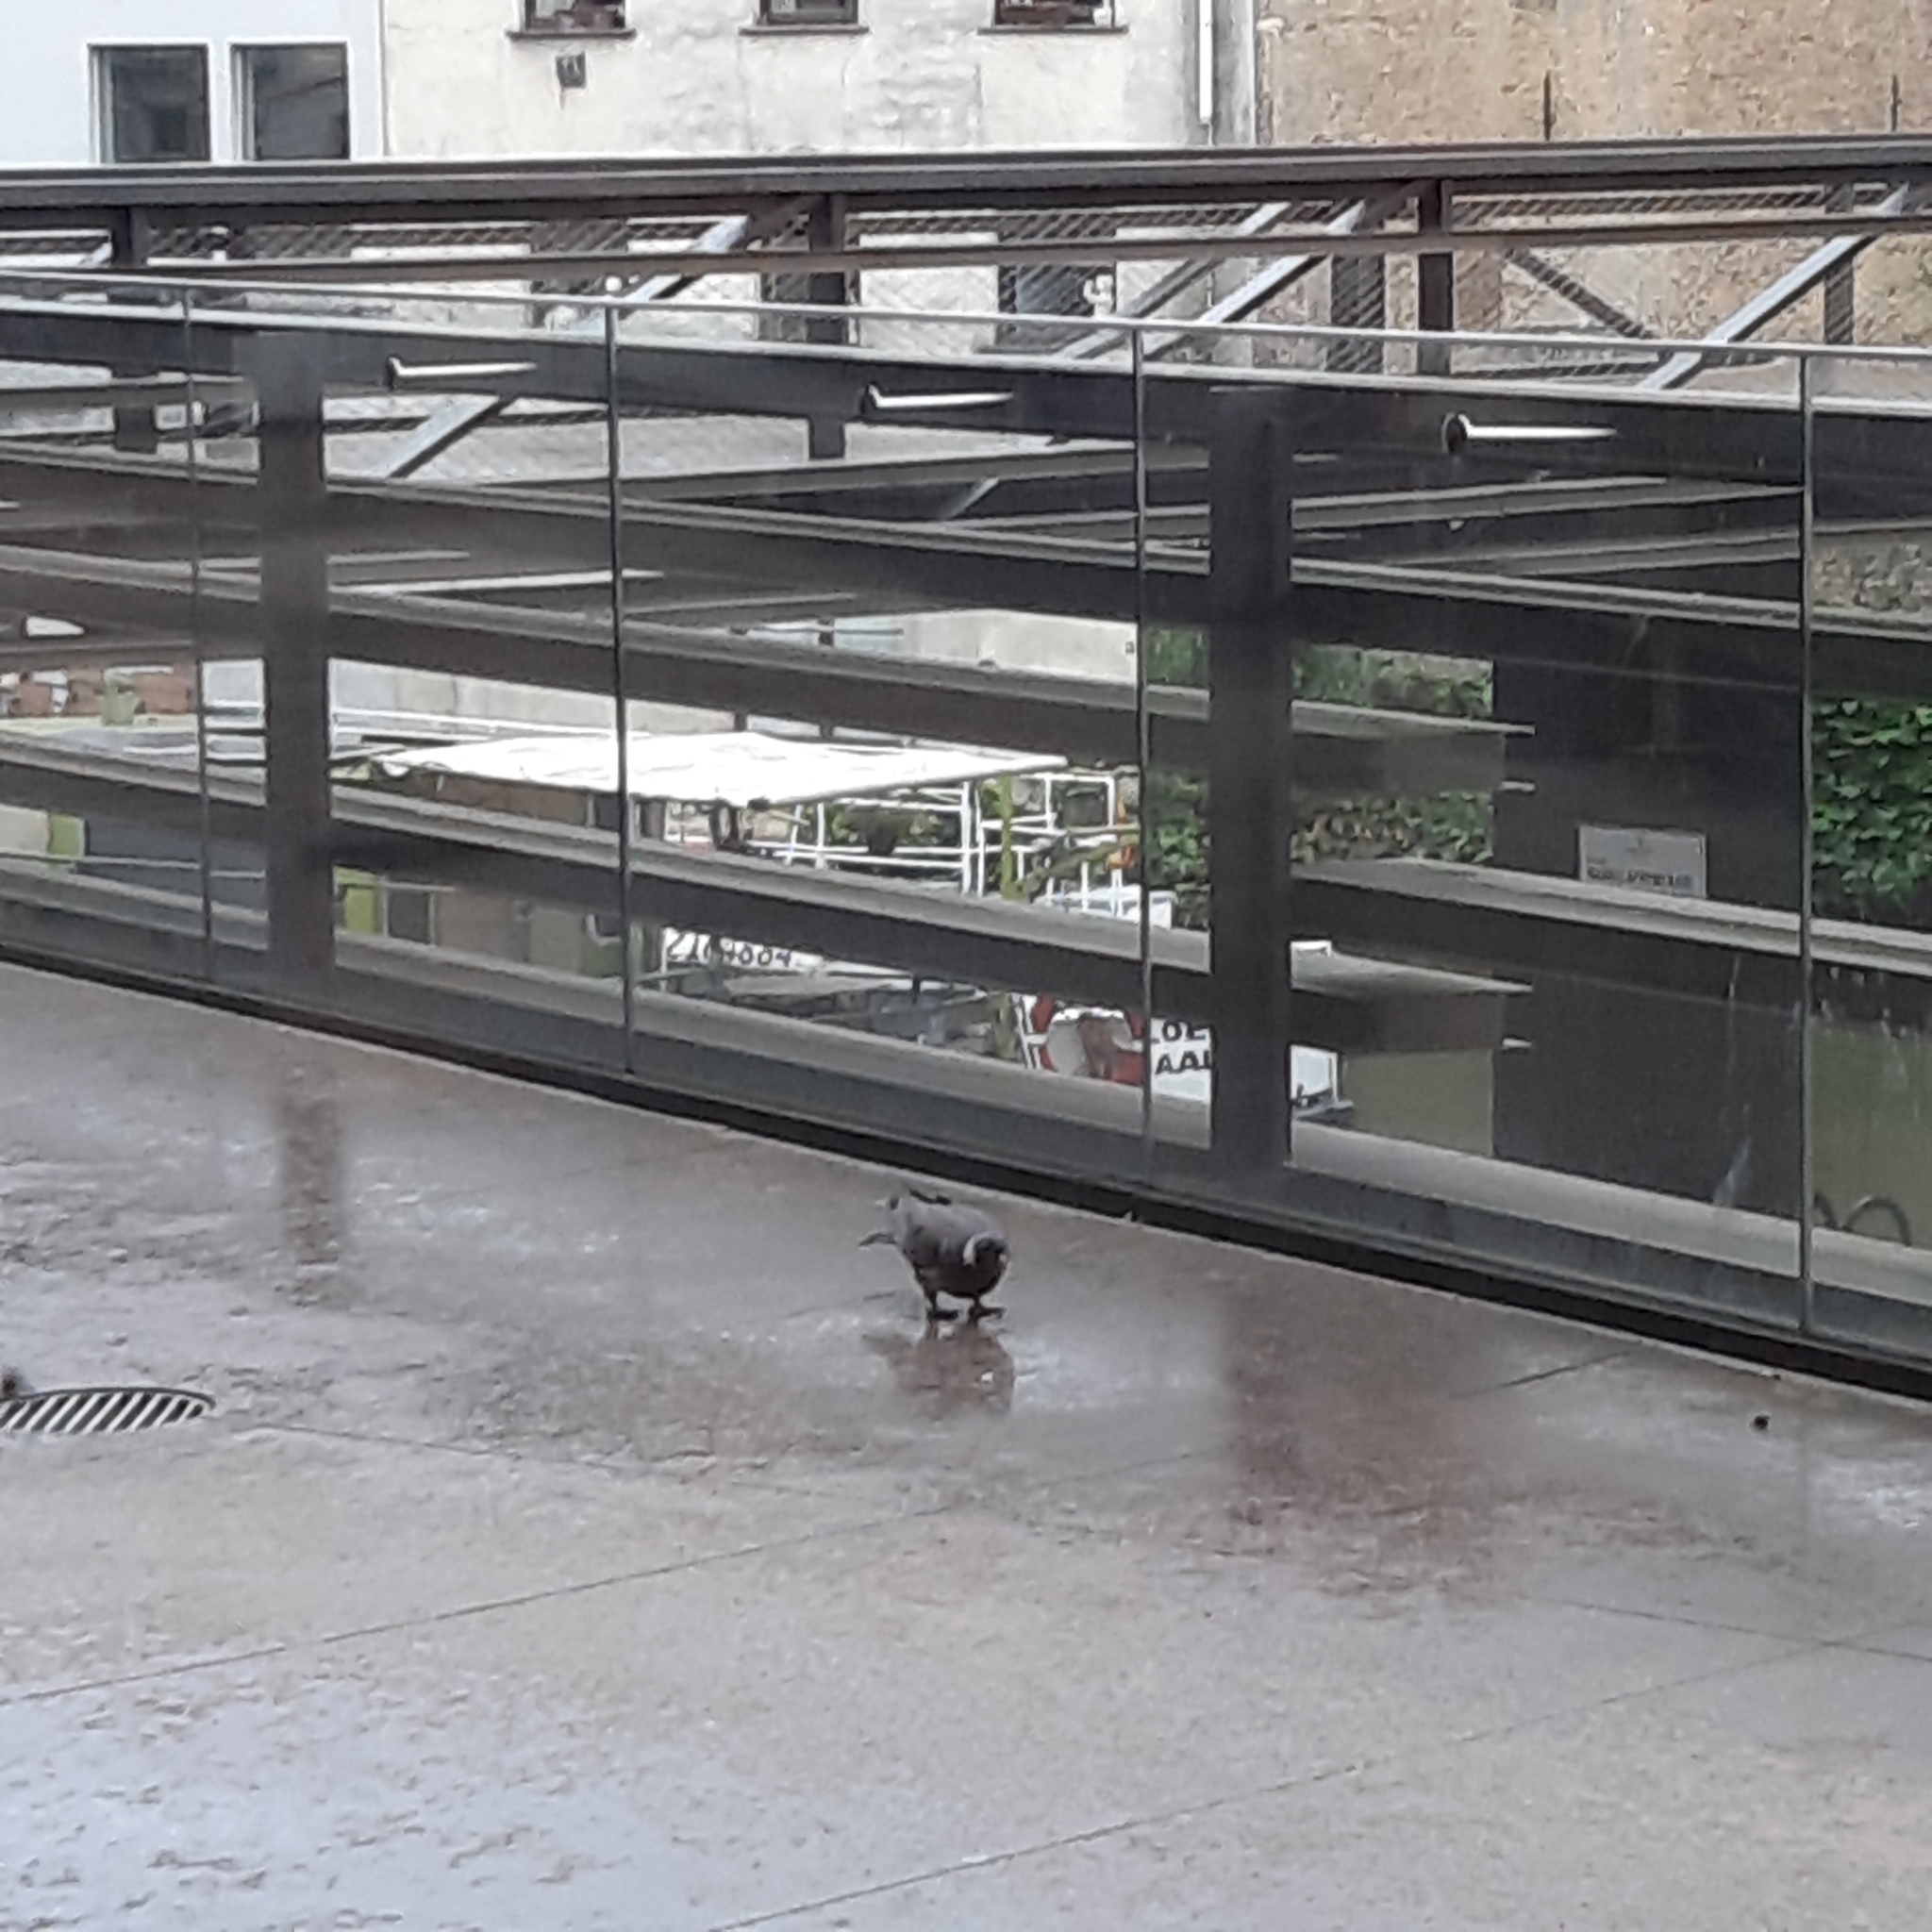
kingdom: Animalia
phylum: Chordata
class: Aves
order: Columbiformes
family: Columbidae
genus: Columba
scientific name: Columba palumbus
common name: Common wood pigeon
